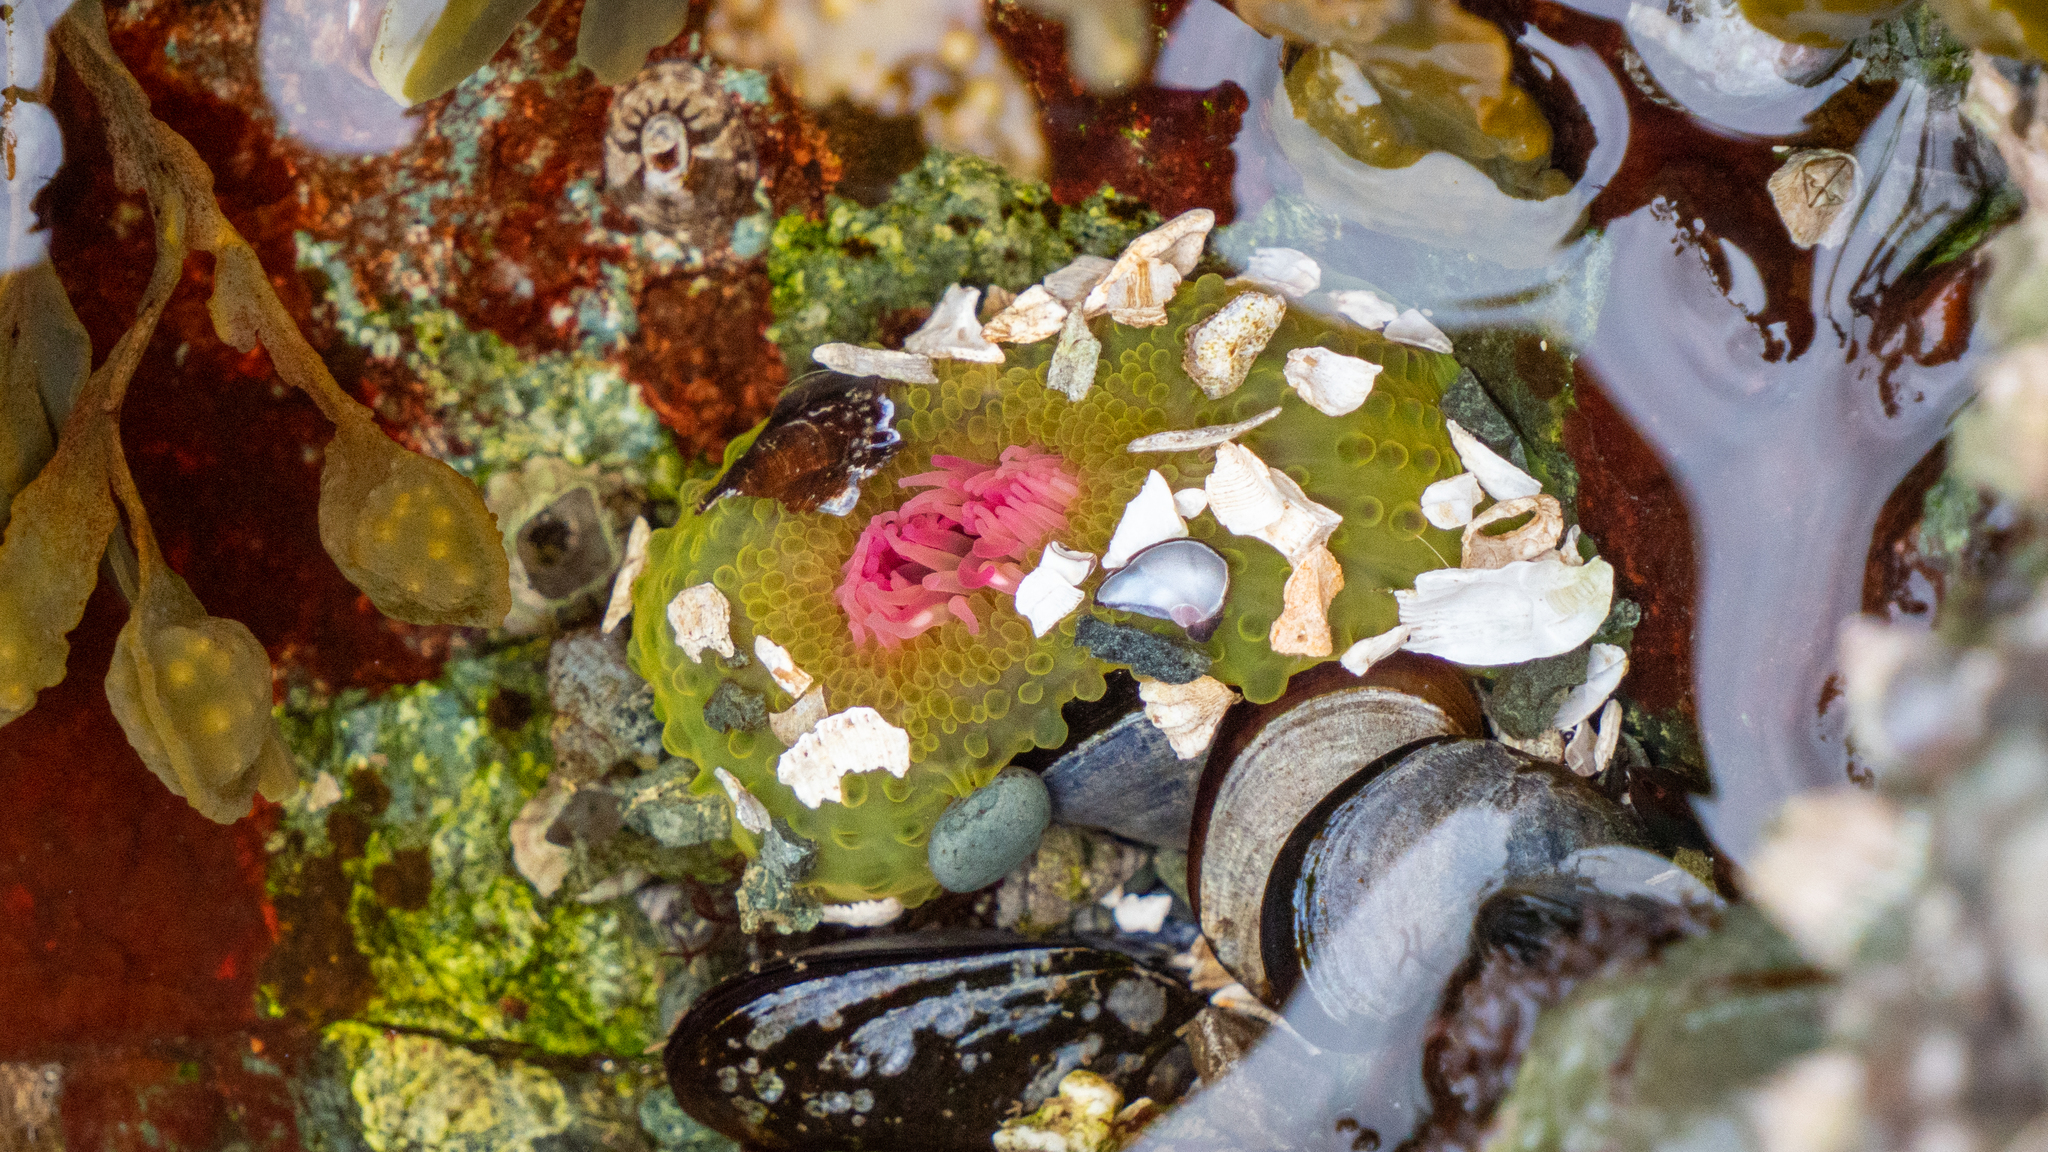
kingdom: Animalia
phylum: Cnidaria
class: Anthozoa
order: Actiniaria
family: Actiniidae
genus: Anthopleura
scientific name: Anthopleura elegantissima
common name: Clonal anemone
